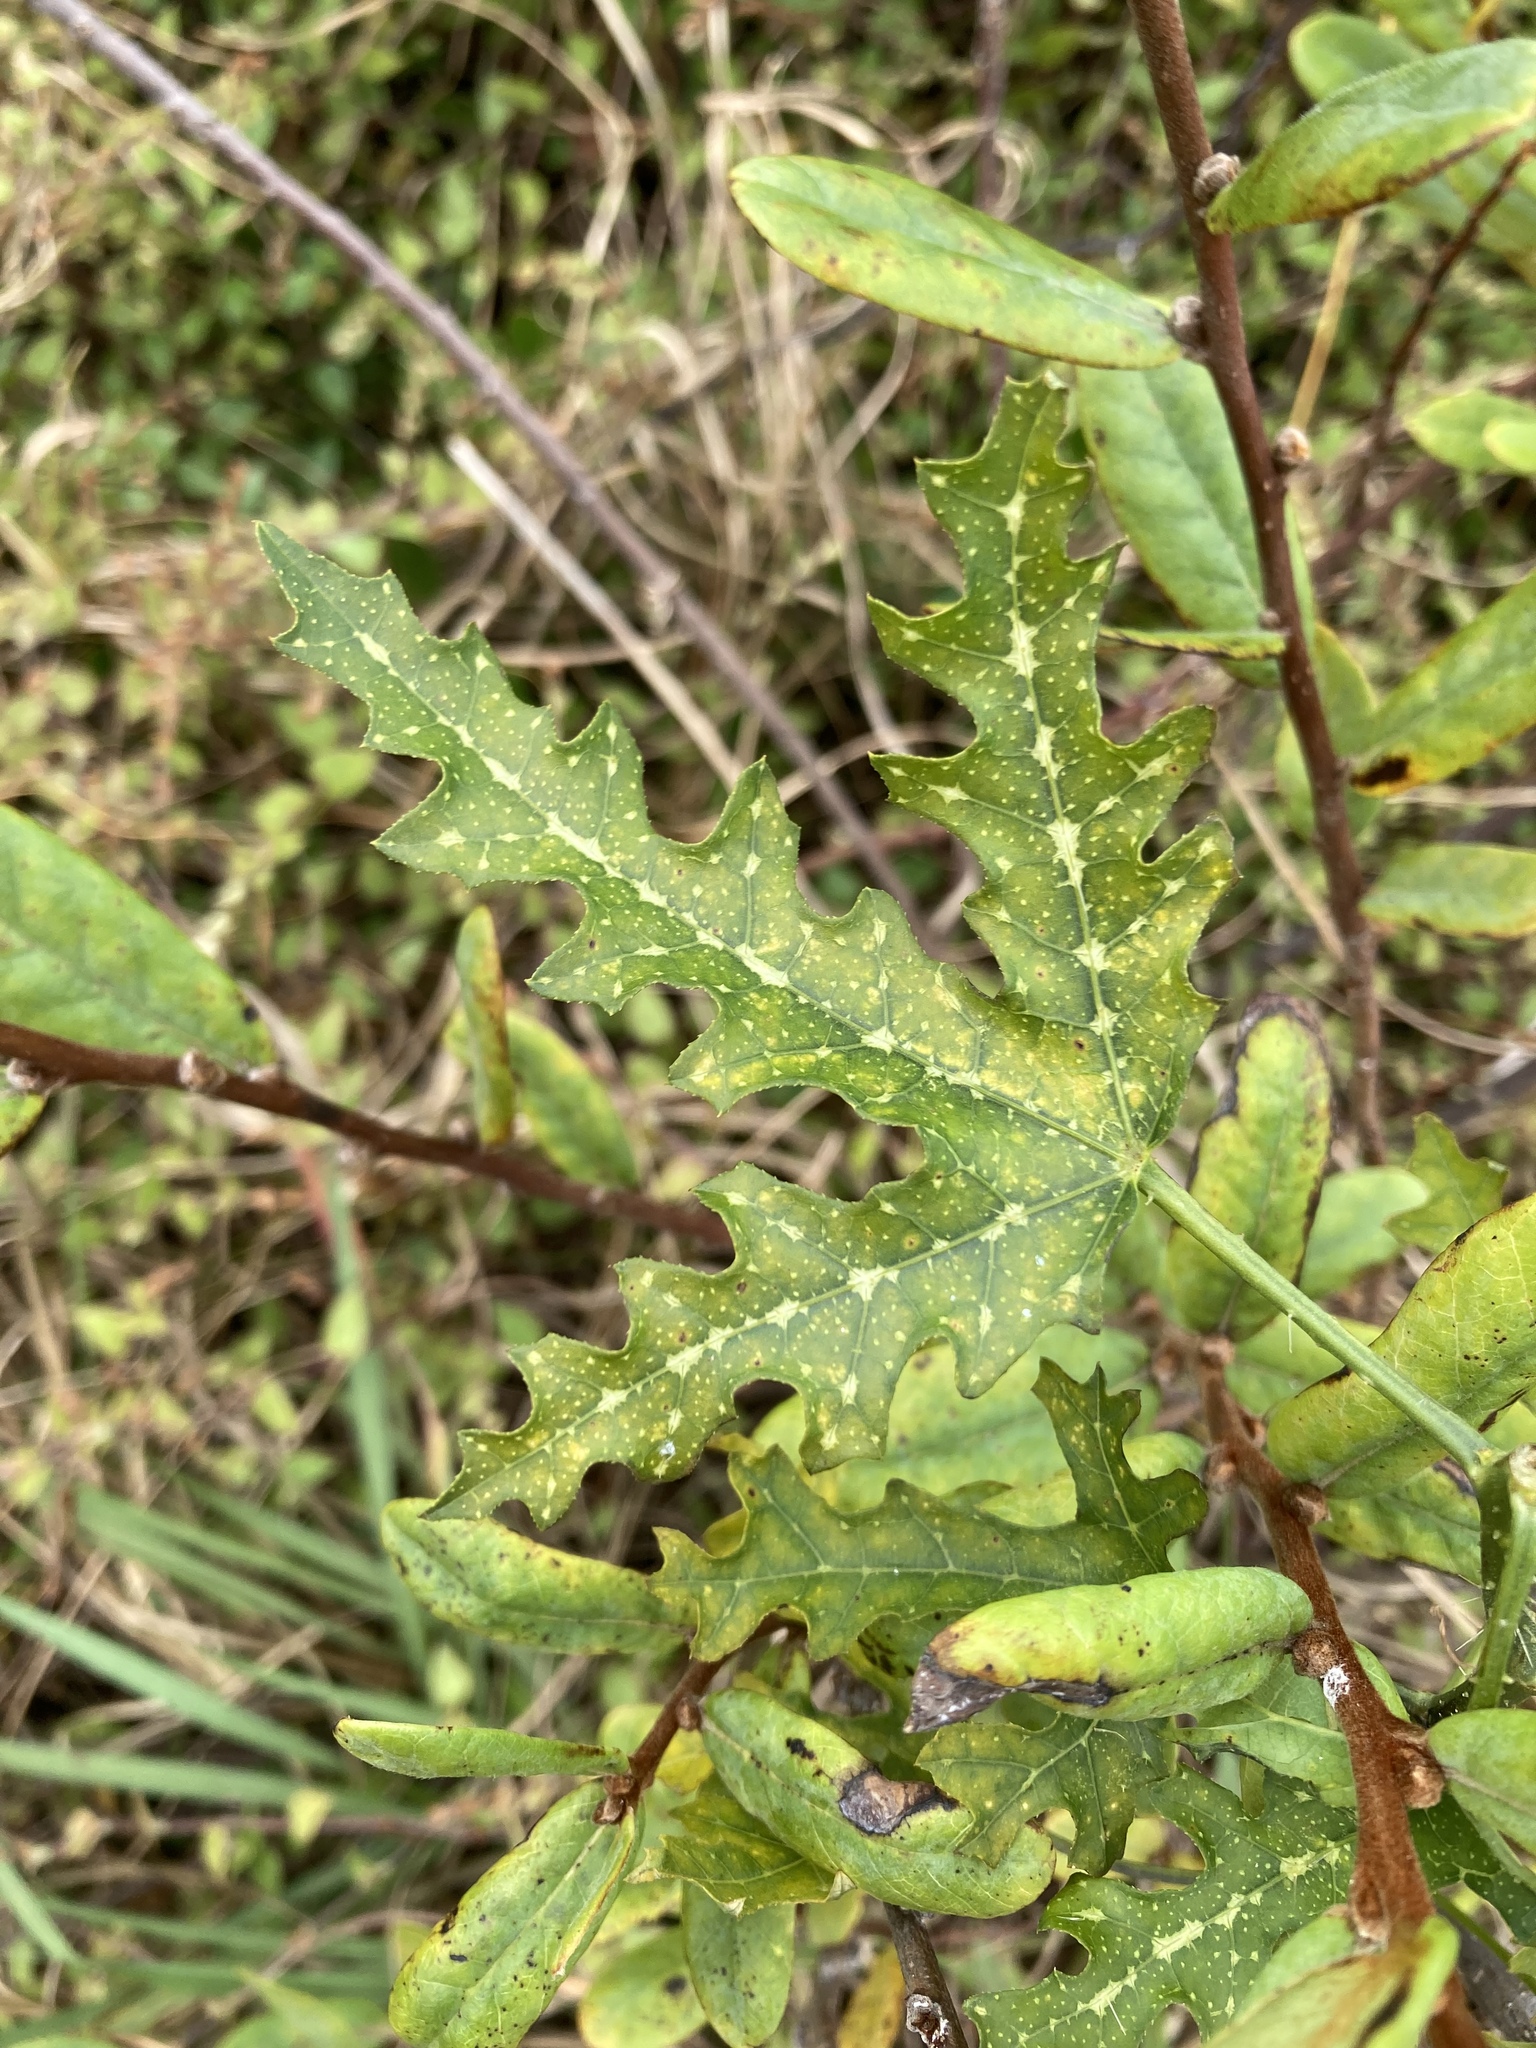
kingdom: Plantae
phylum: Tracheophyta
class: Magnoliopsida
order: Malpighiales
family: Euphorbiaceae
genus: Cnidoscolus
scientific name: Cnidoscolus stimulosus
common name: Bull-nettle
